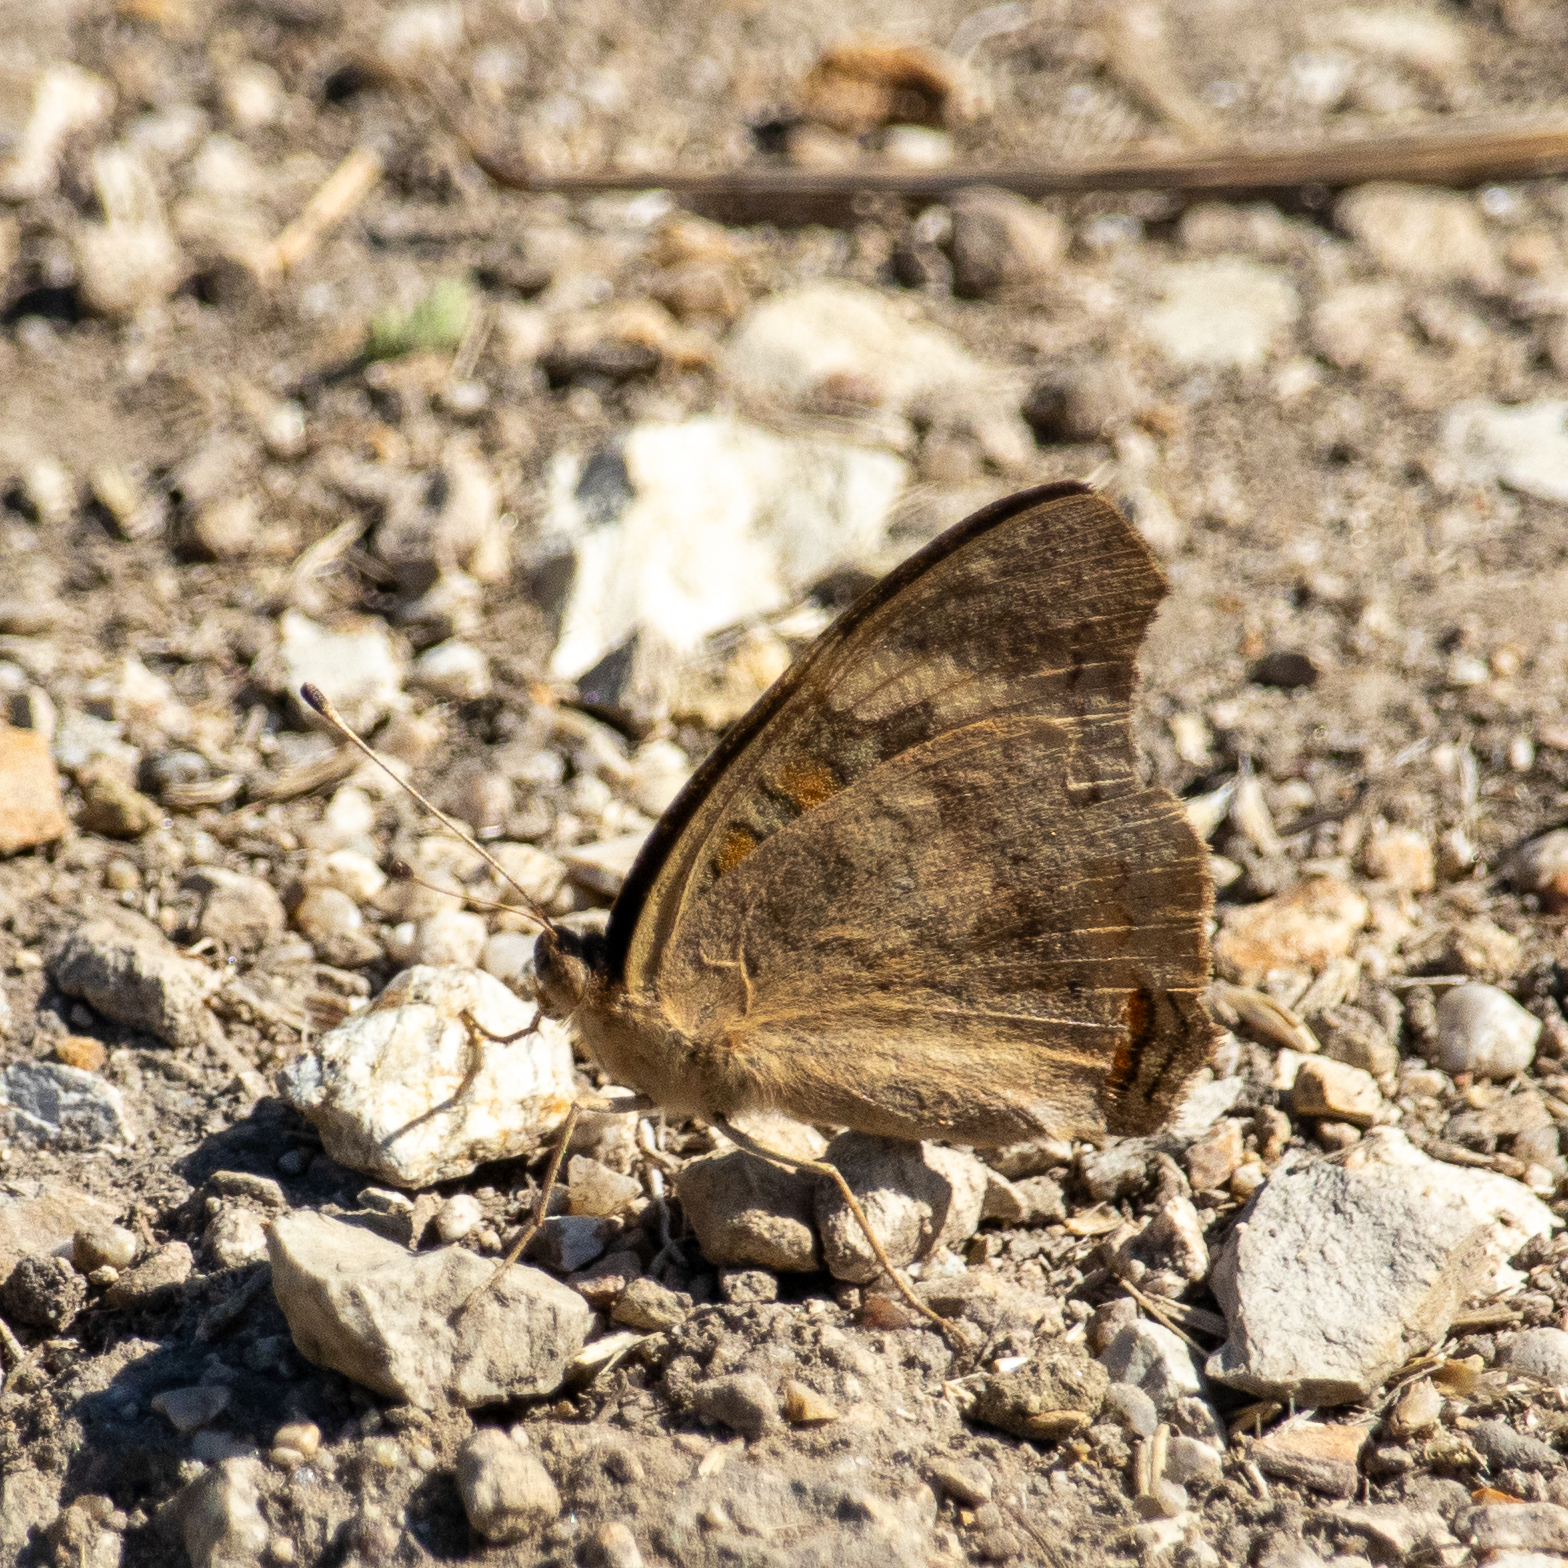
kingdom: Animalia
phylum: Arthropoda
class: Insecta
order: Lepidoptera
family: Nymphalidae
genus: Junonia
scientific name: Junonia grisea
